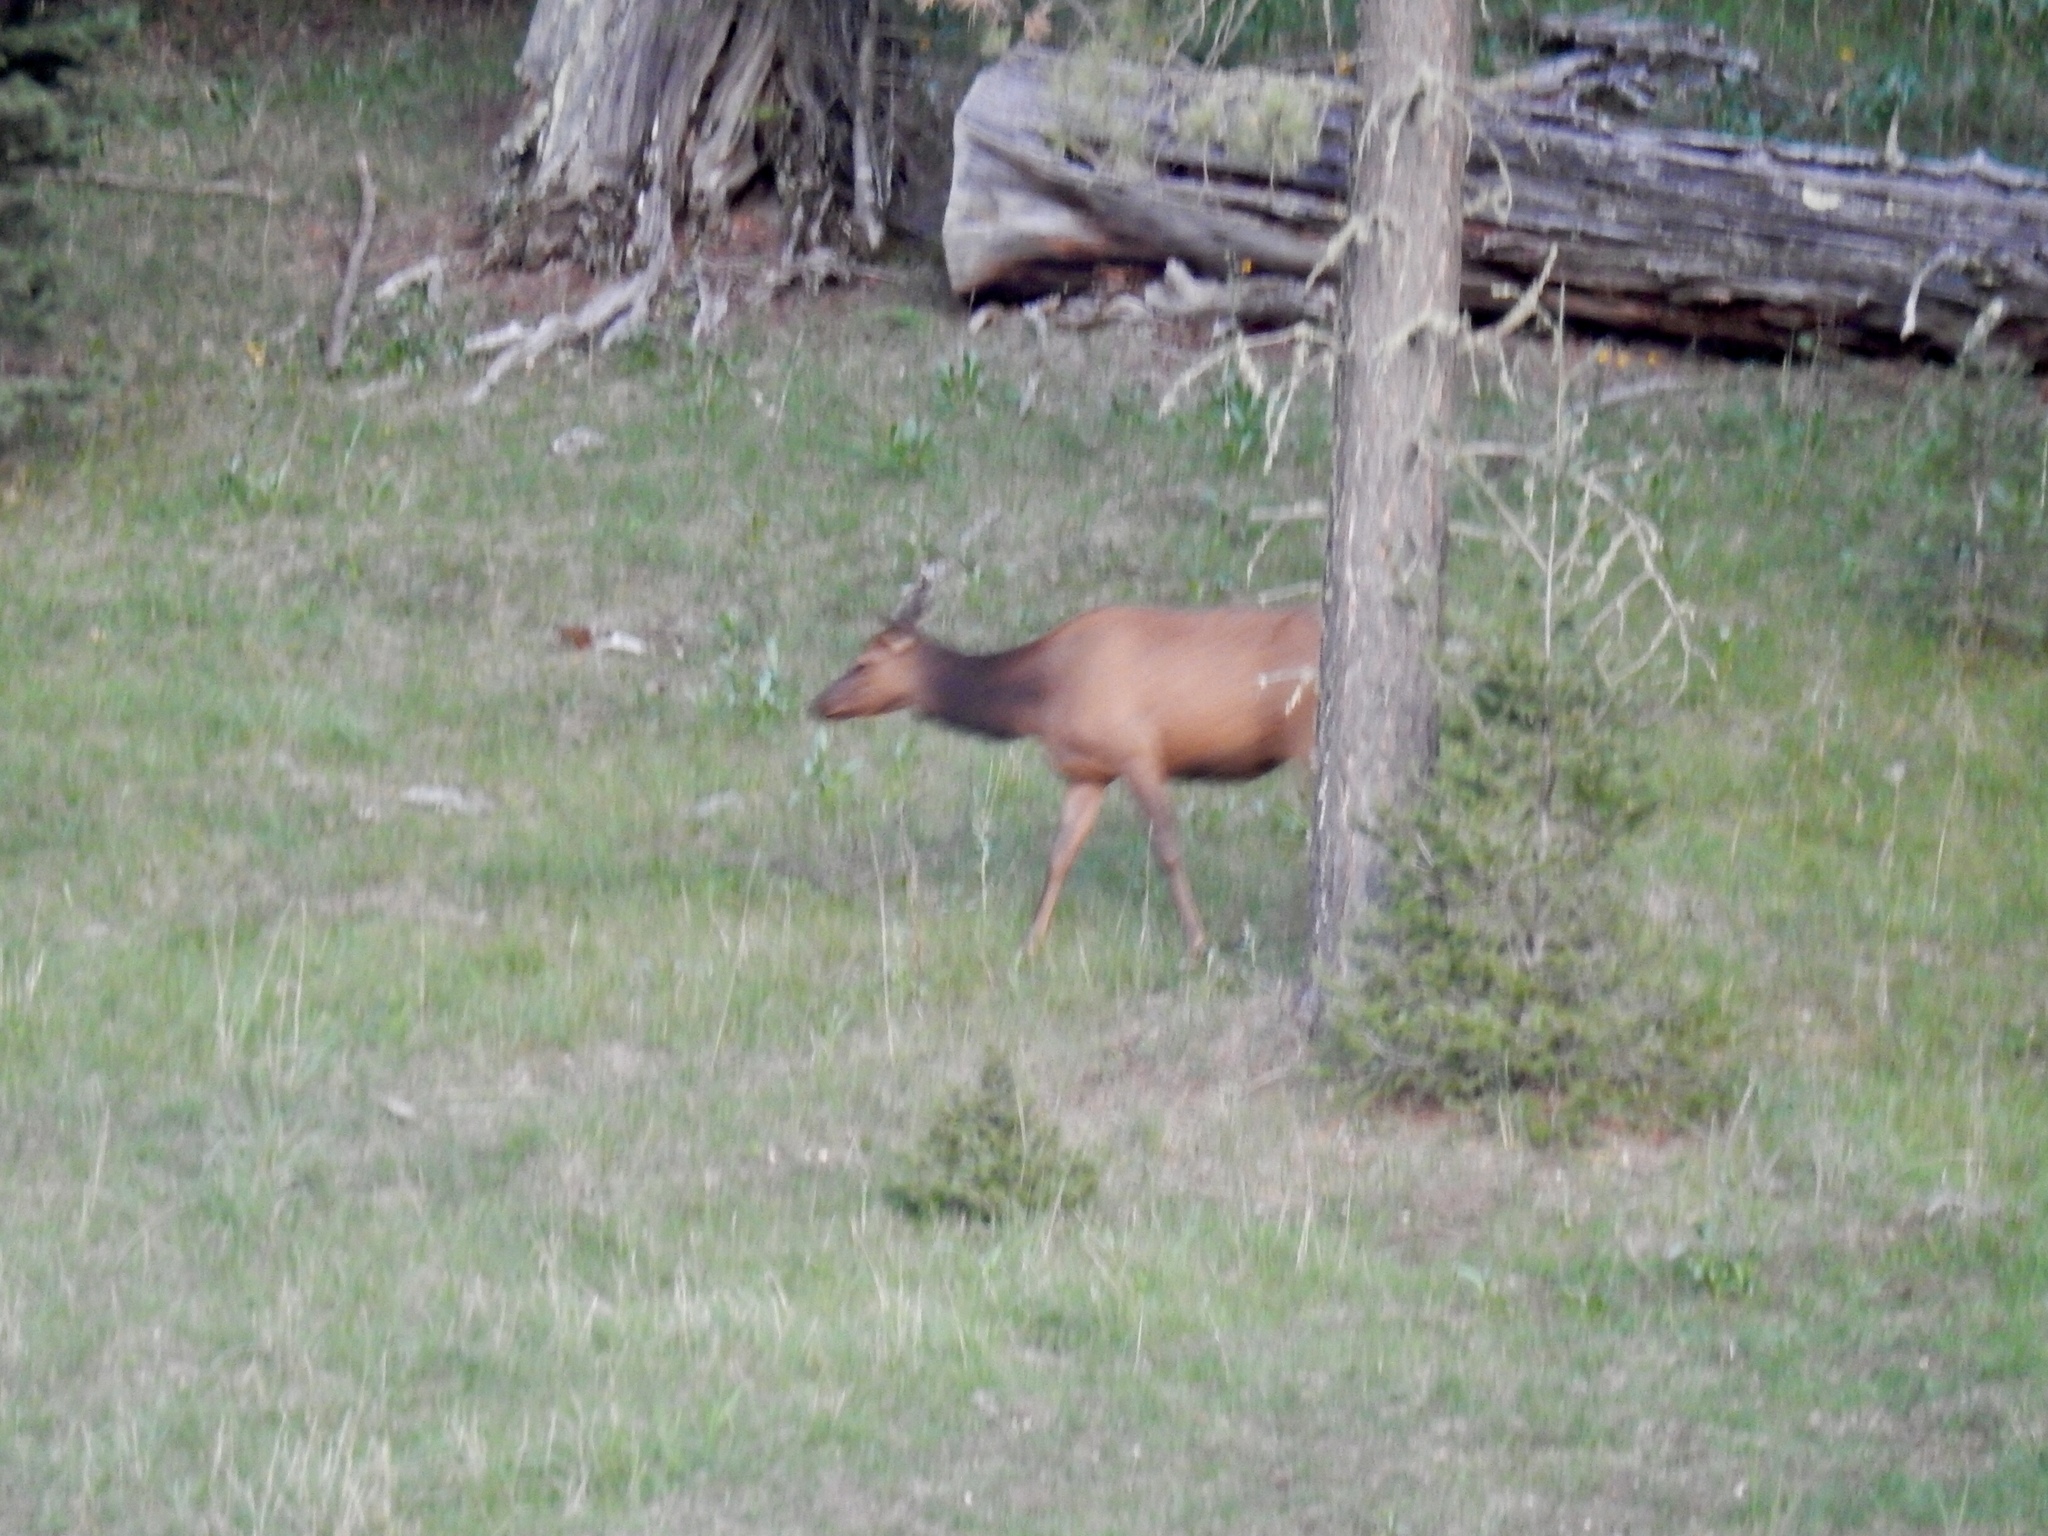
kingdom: Animalia
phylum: Chordata
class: Mammalia
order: Artiodactyla
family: Cervidae
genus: Cervus
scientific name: Cervus elaphus
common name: Red deer
